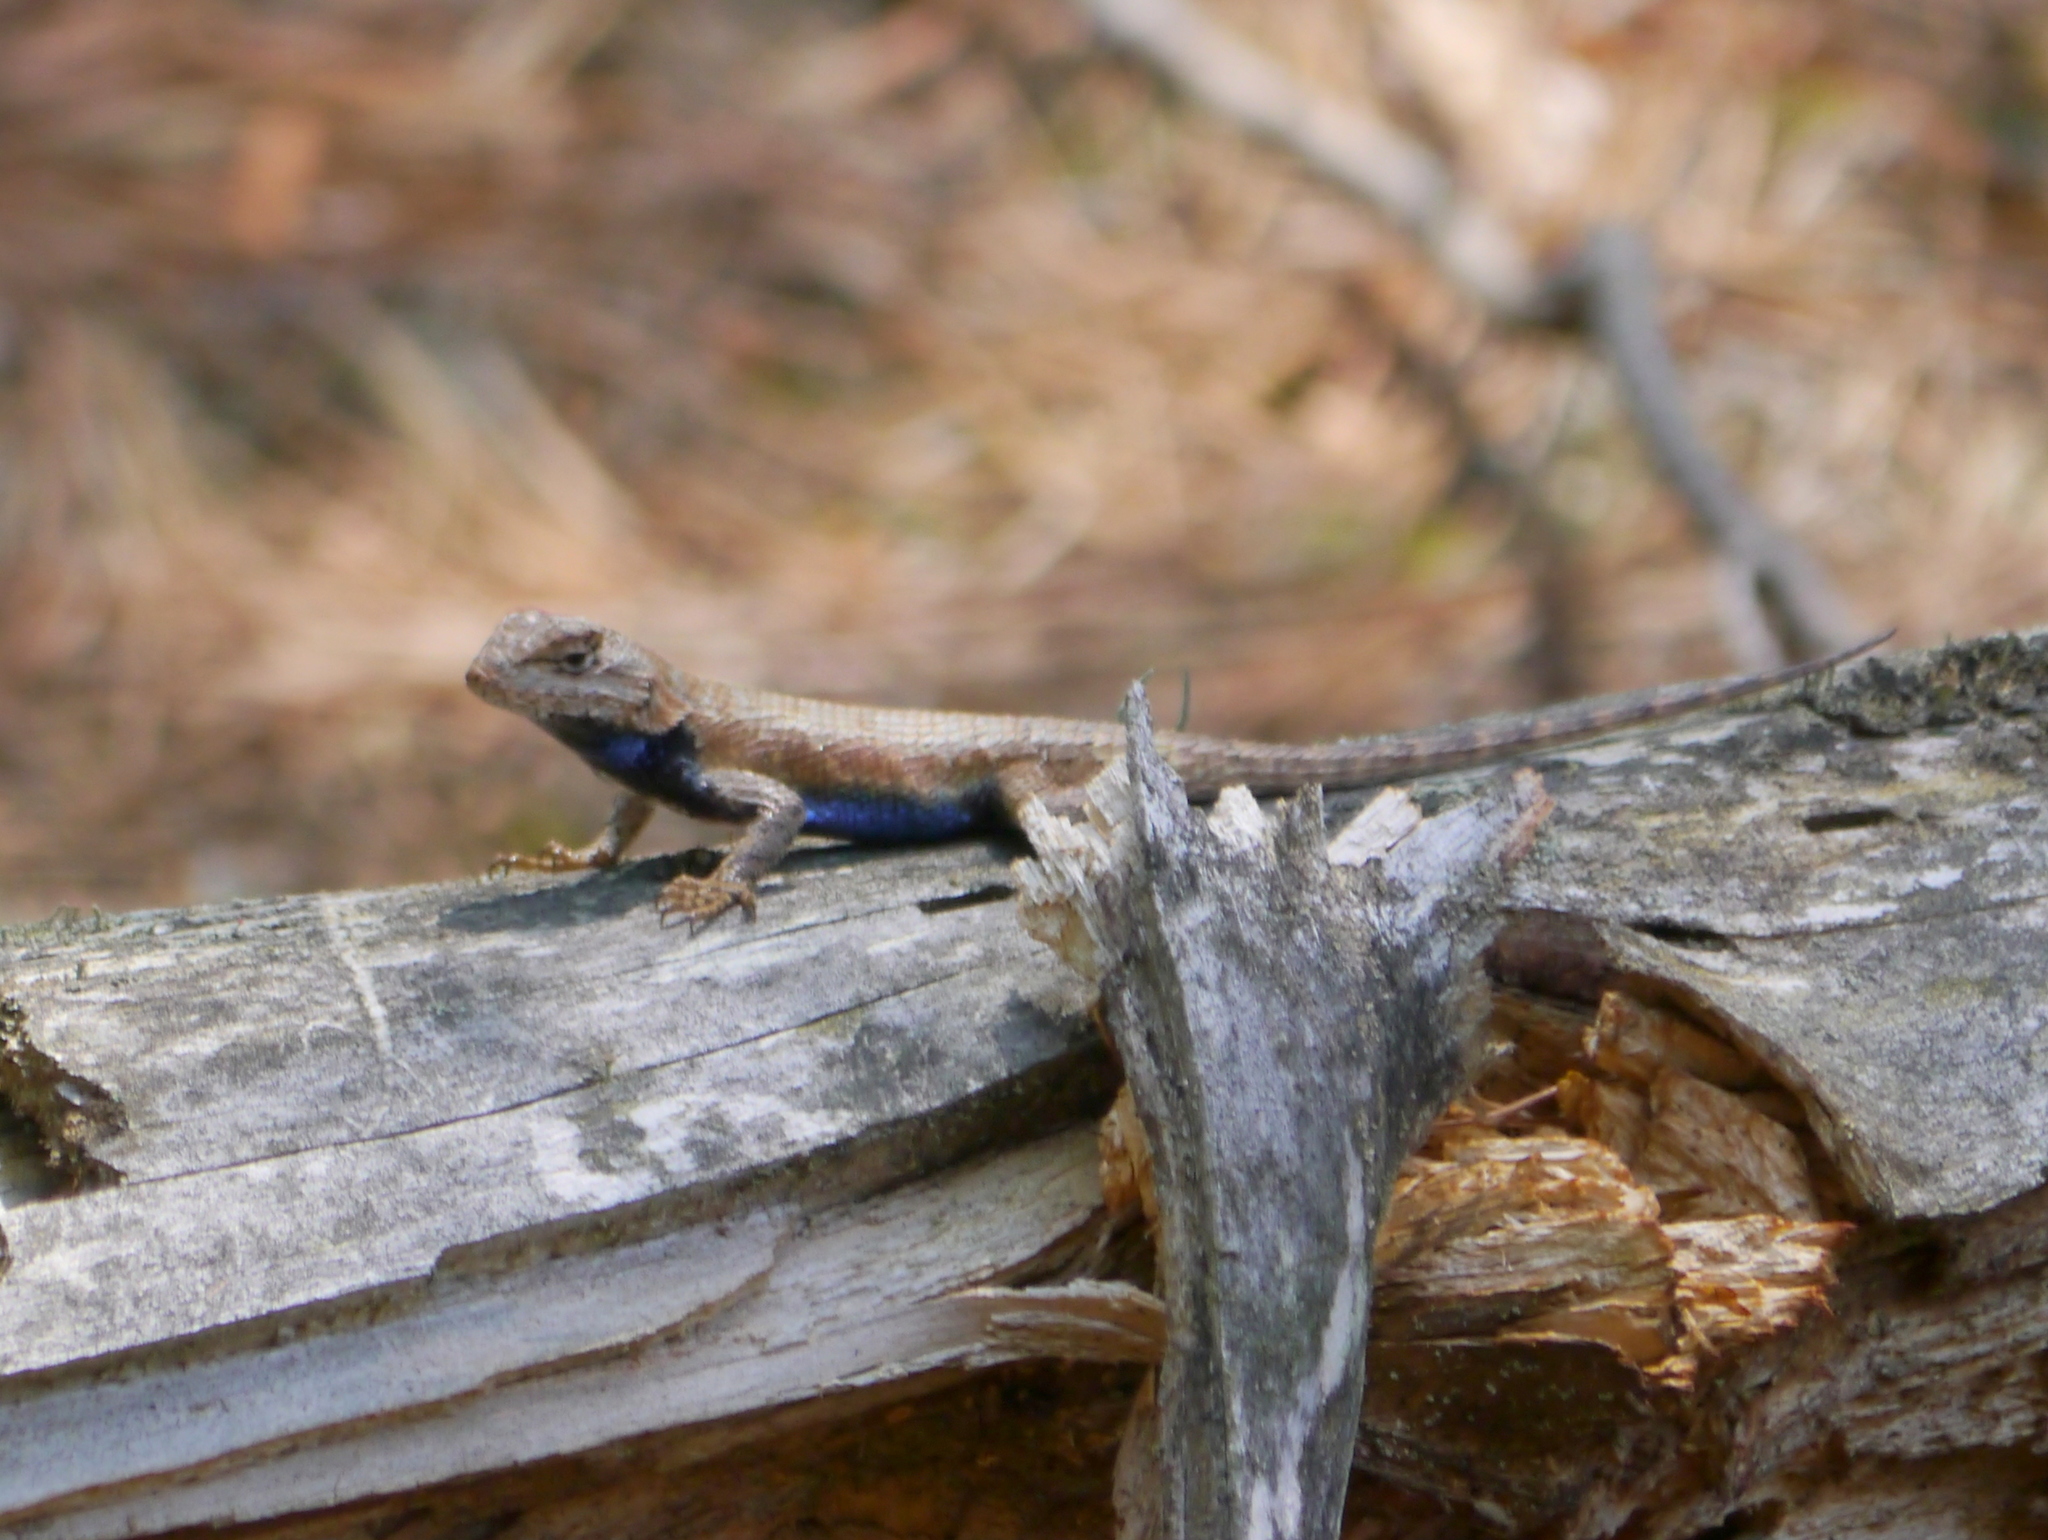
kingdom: Animalia
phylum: Chordata
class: Squamata
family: Phrynosomatidae
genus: Sceloporus
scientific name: Sceloporus undulatus
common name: Eastern fence lizard
